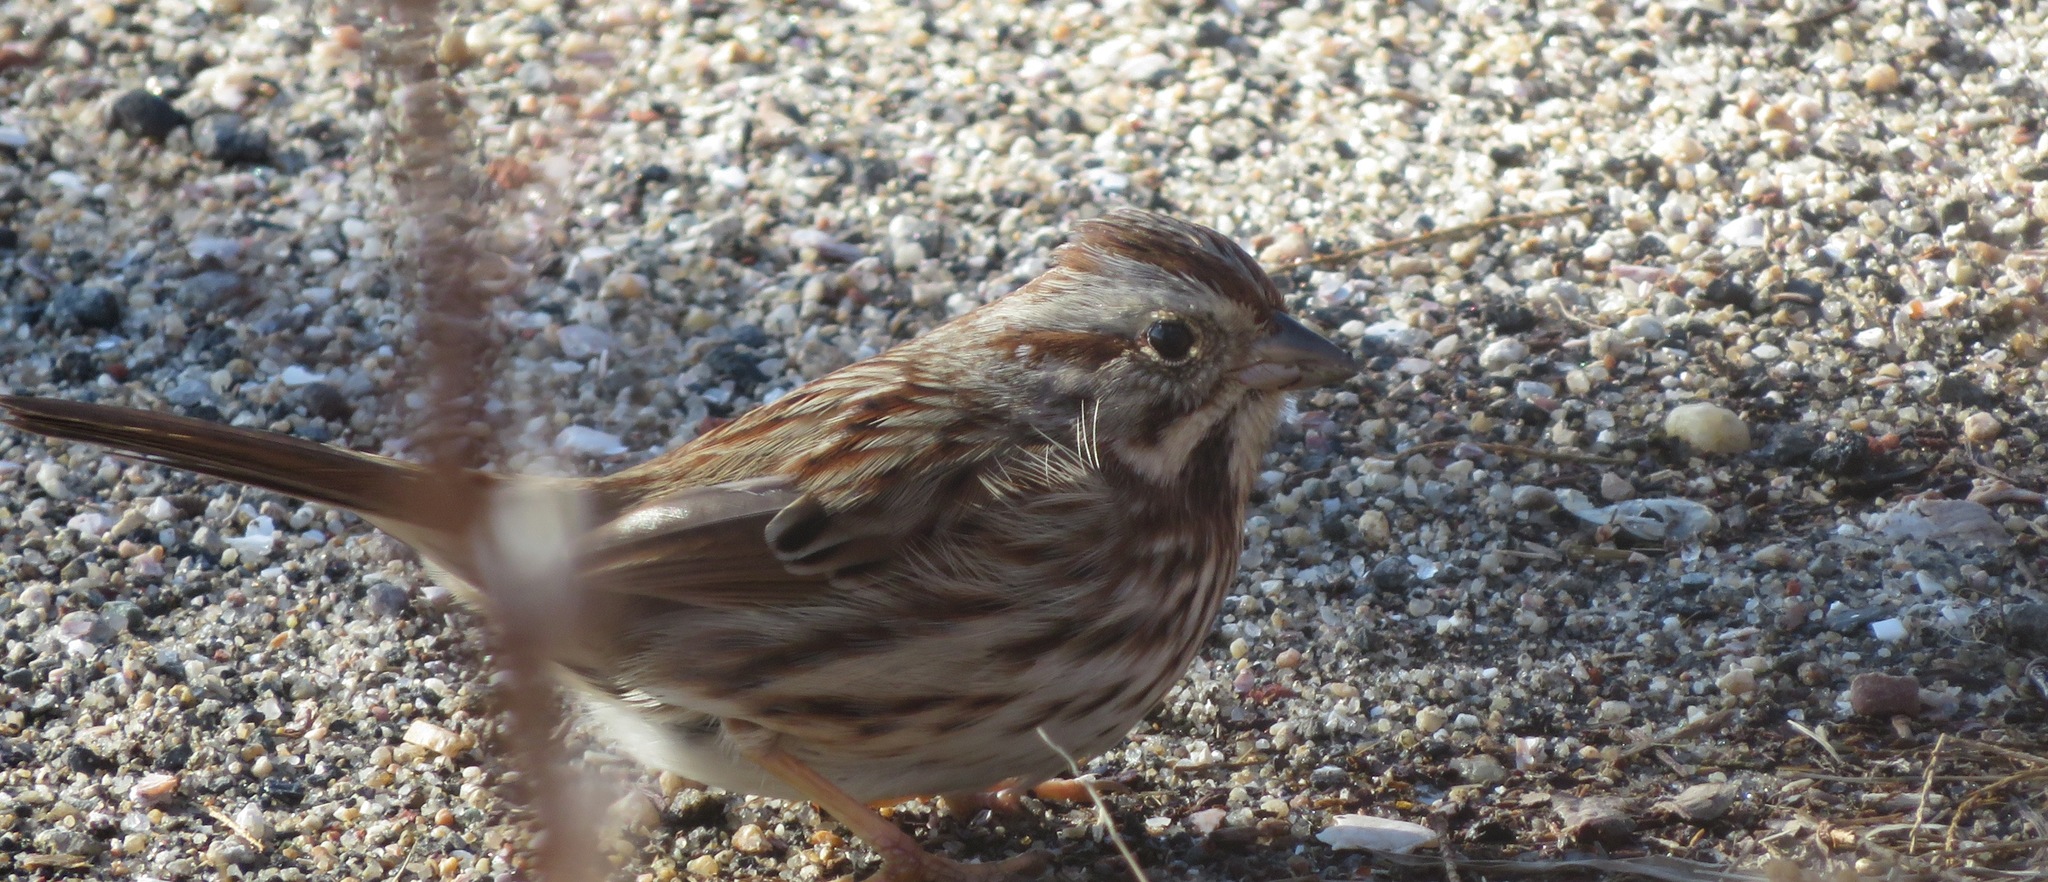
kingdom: Animalia
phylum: Chordata
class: Aves
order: Passeriformes
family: Passerellidae
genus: Melospiza
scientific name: Melospiza melodia
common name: Song sparrow
